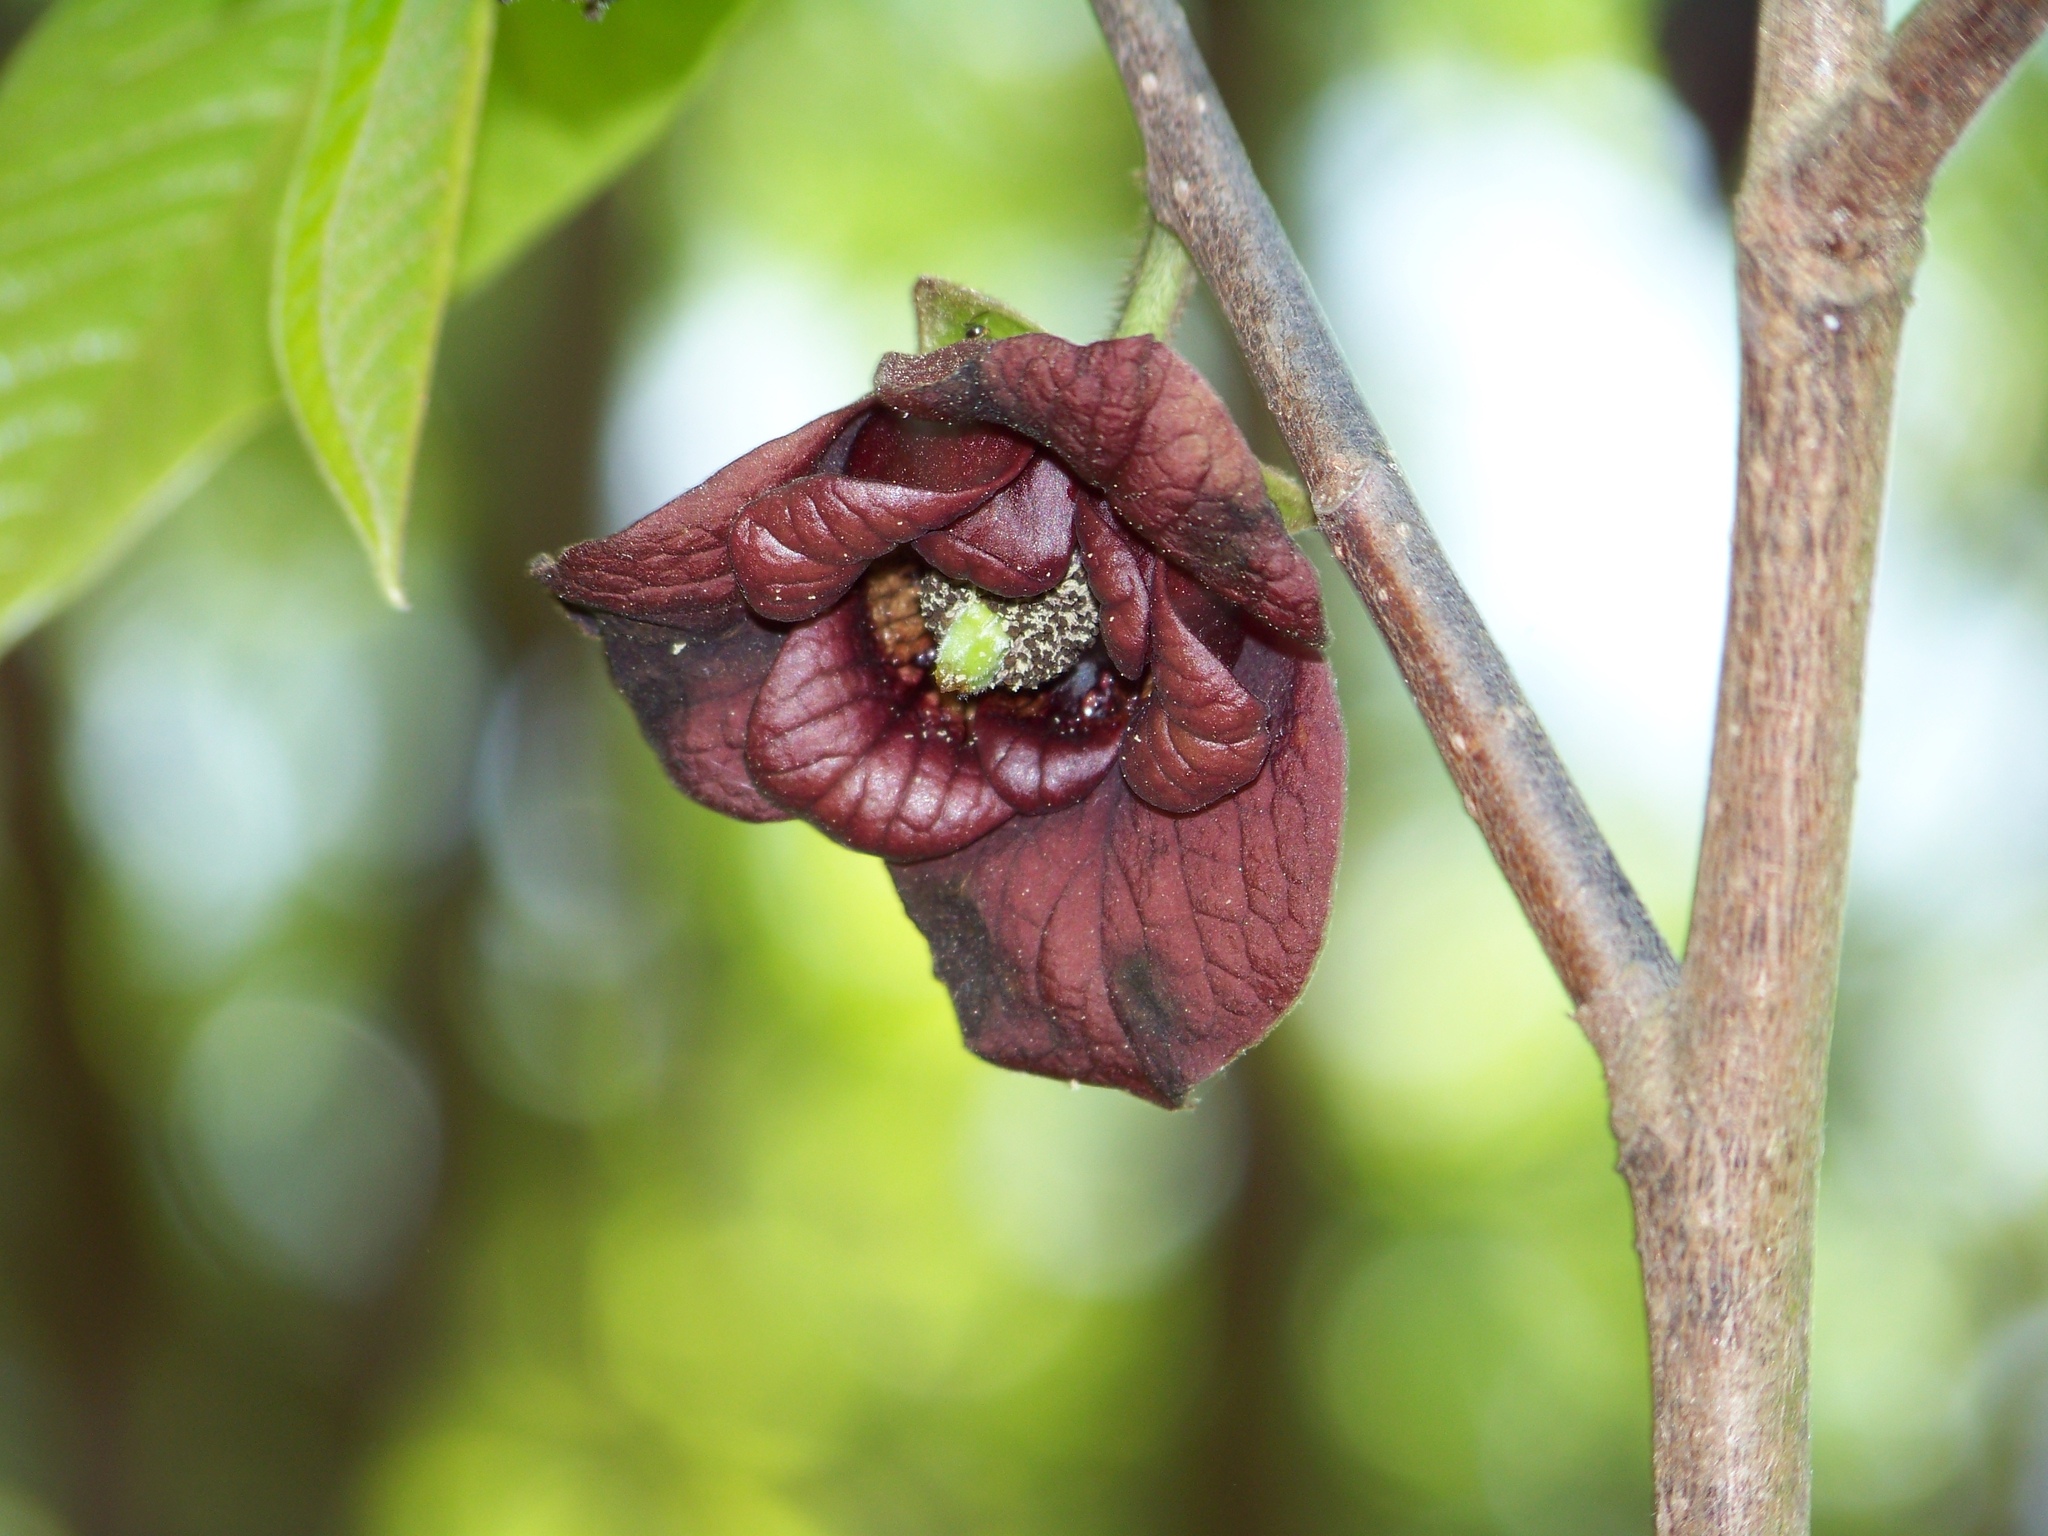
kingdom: Plantae
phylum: Tracheophyta
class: Magnoliopsida
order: Magnoliales
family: Annonaceae
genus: Asimina
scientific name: Asimina triloba
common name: Dog-banana
